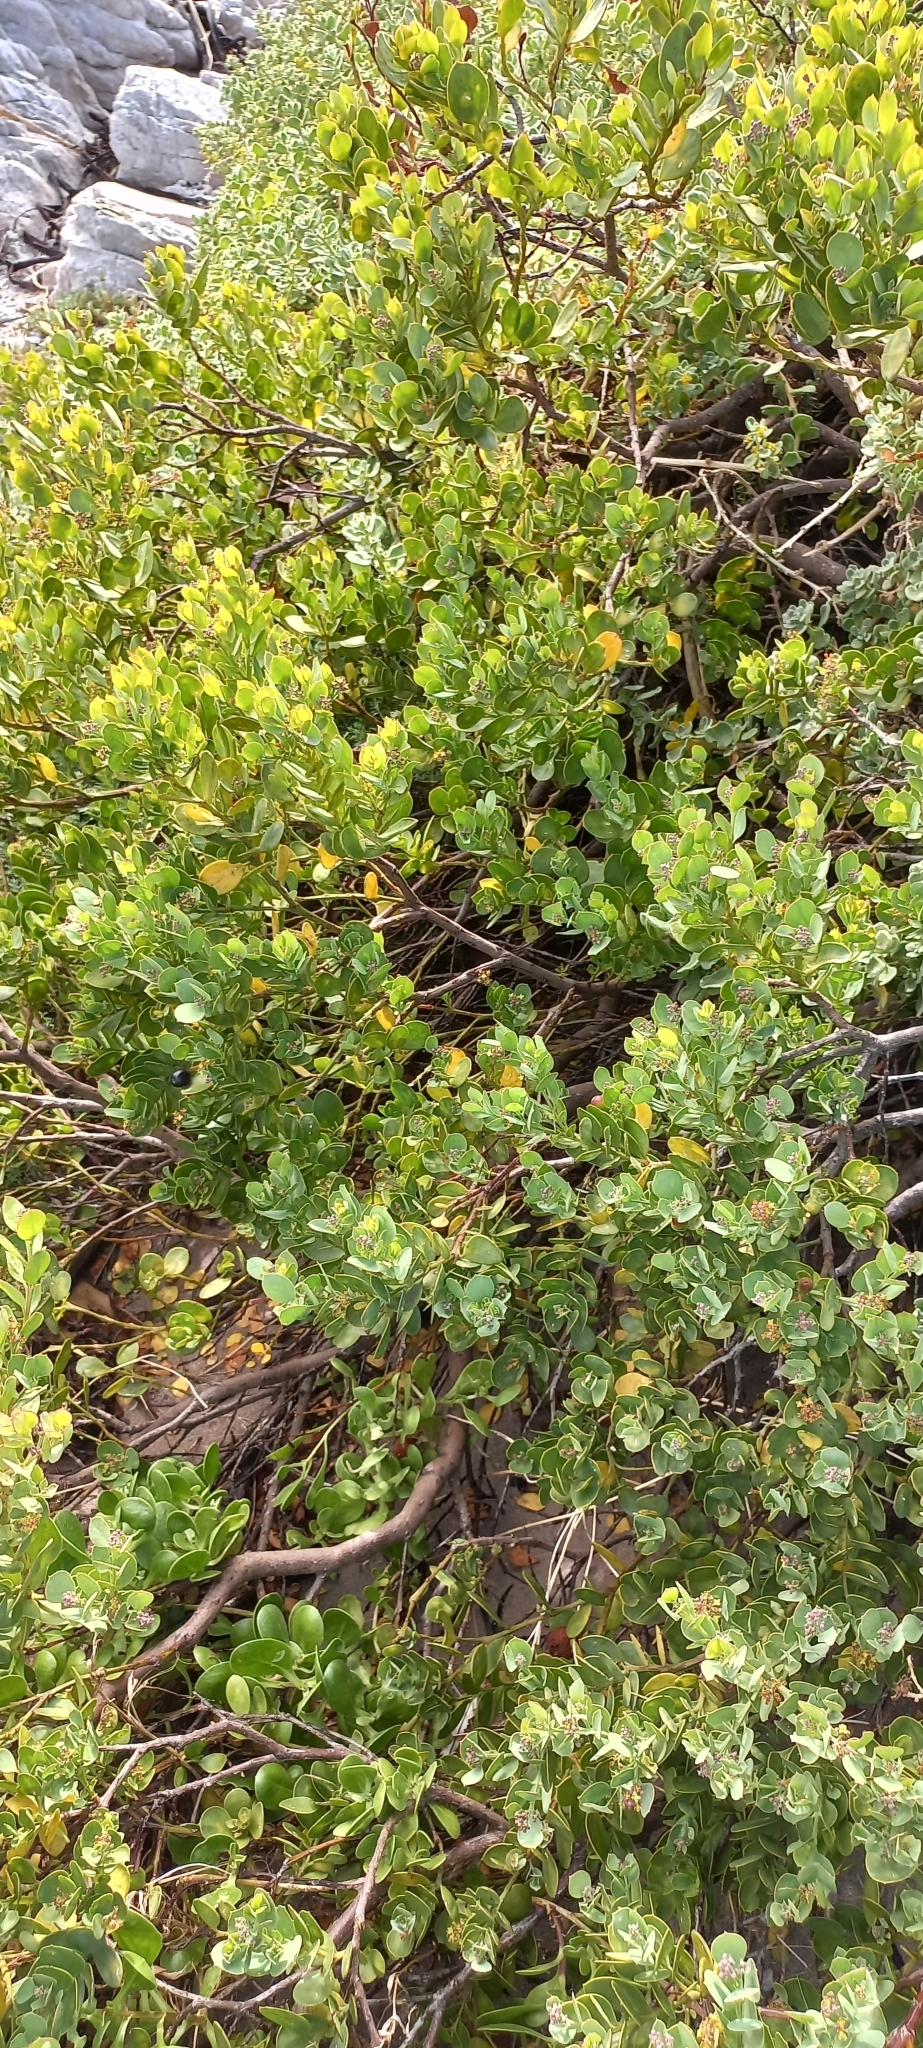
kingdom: Plantae
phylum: Tracheophyta
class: Magnoliopsida
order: Santalales
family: Santalaceae
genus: Osyris
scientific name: Osyris compressa
